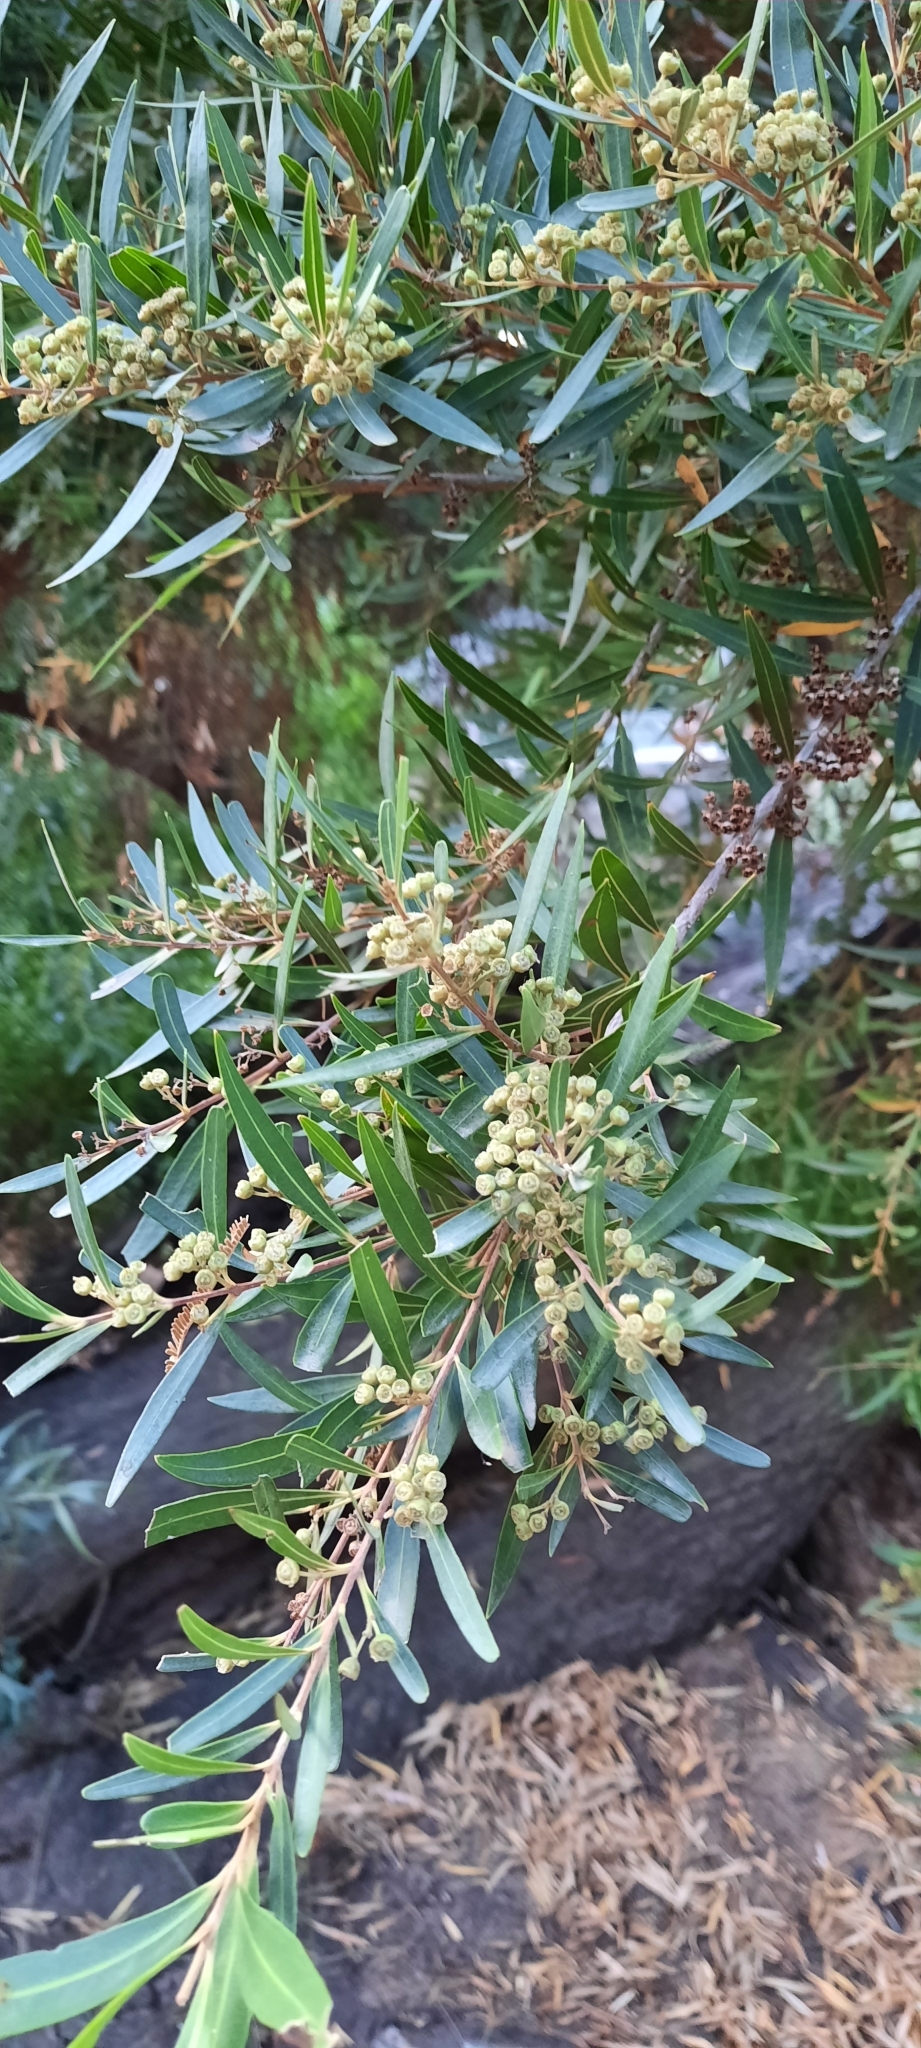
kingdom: Plantae
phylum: Tracheophyta
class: Magnoliopsida
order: Myrtales
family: Myrtaceae
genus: Callistemon
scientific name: Callistemon lanceolatus
